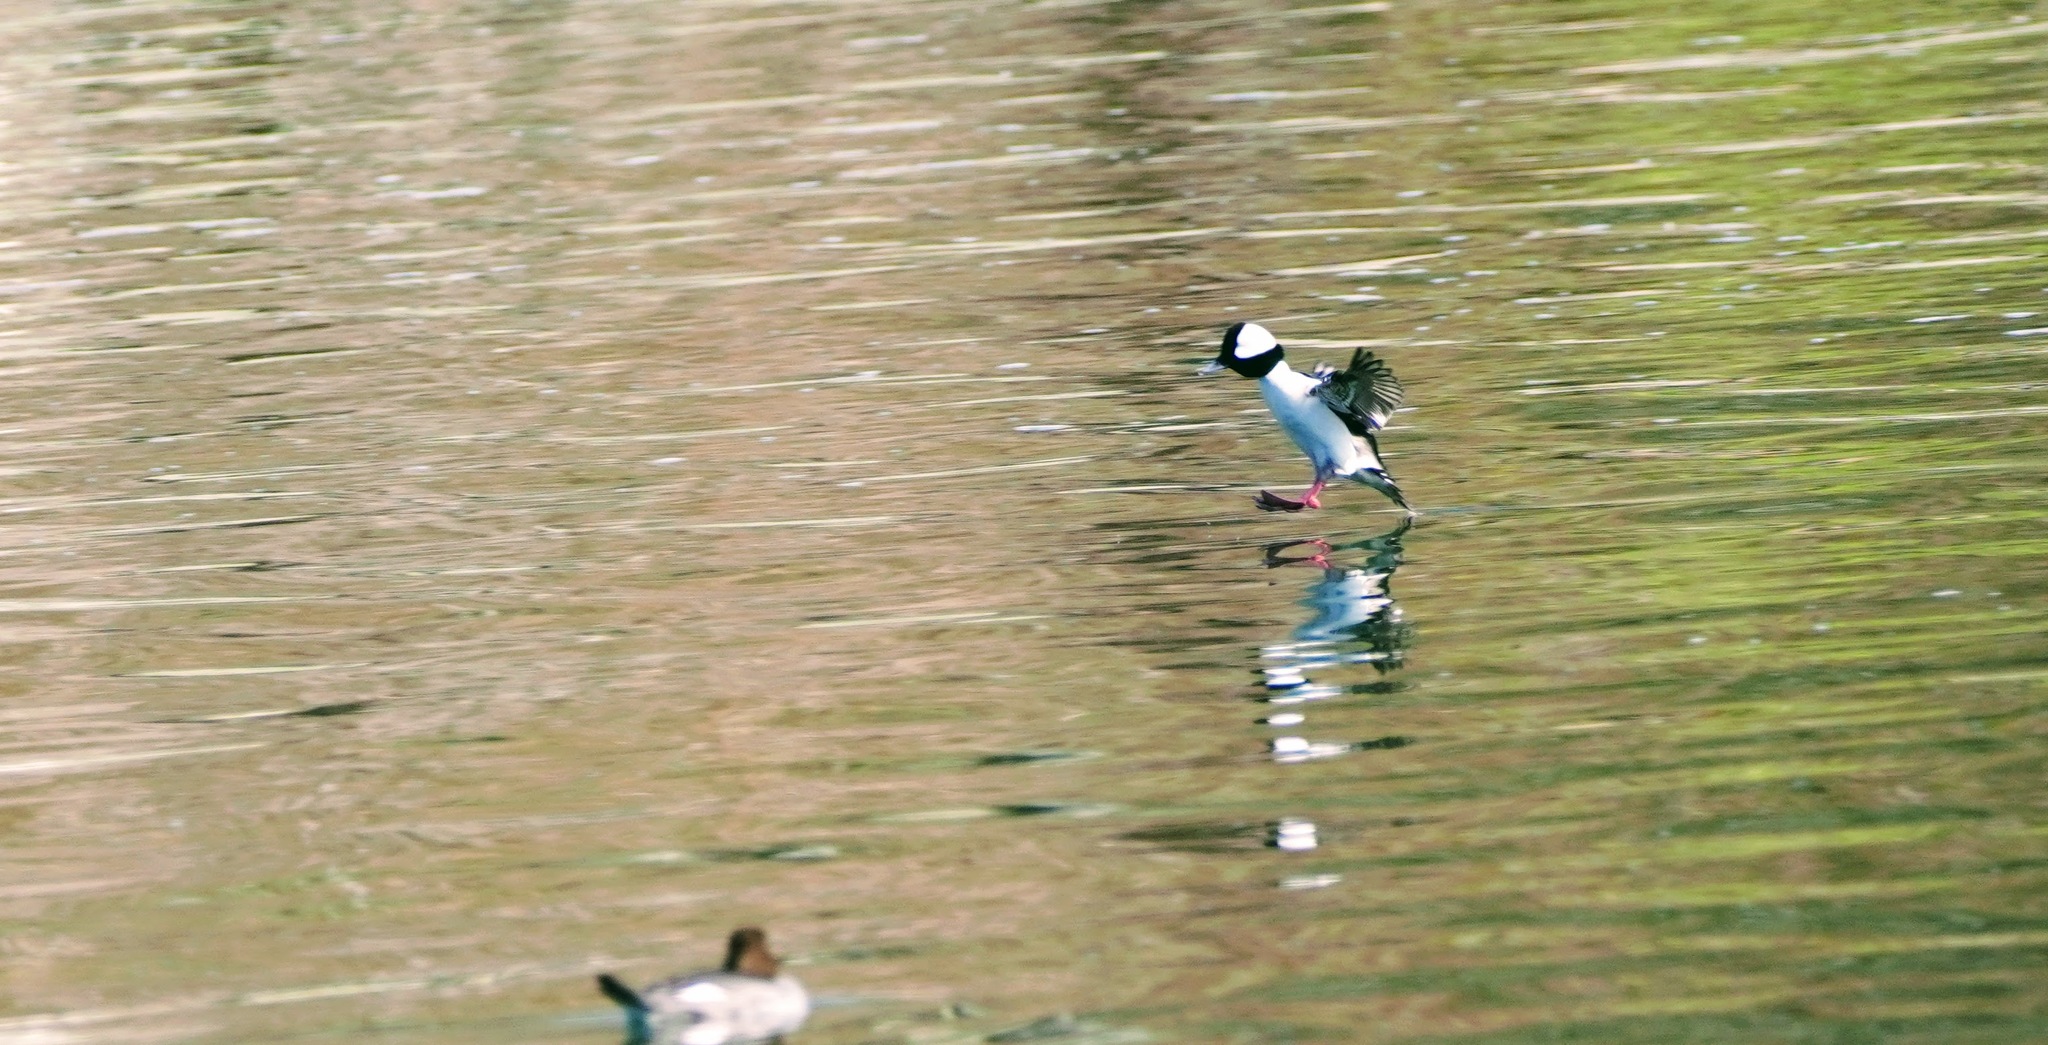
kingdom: Animalia
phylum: Chordata
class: Aves
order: Anseriformes
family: Anatidae
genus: Bucephala
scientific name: Bucephala albeola
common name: Bufflehead
